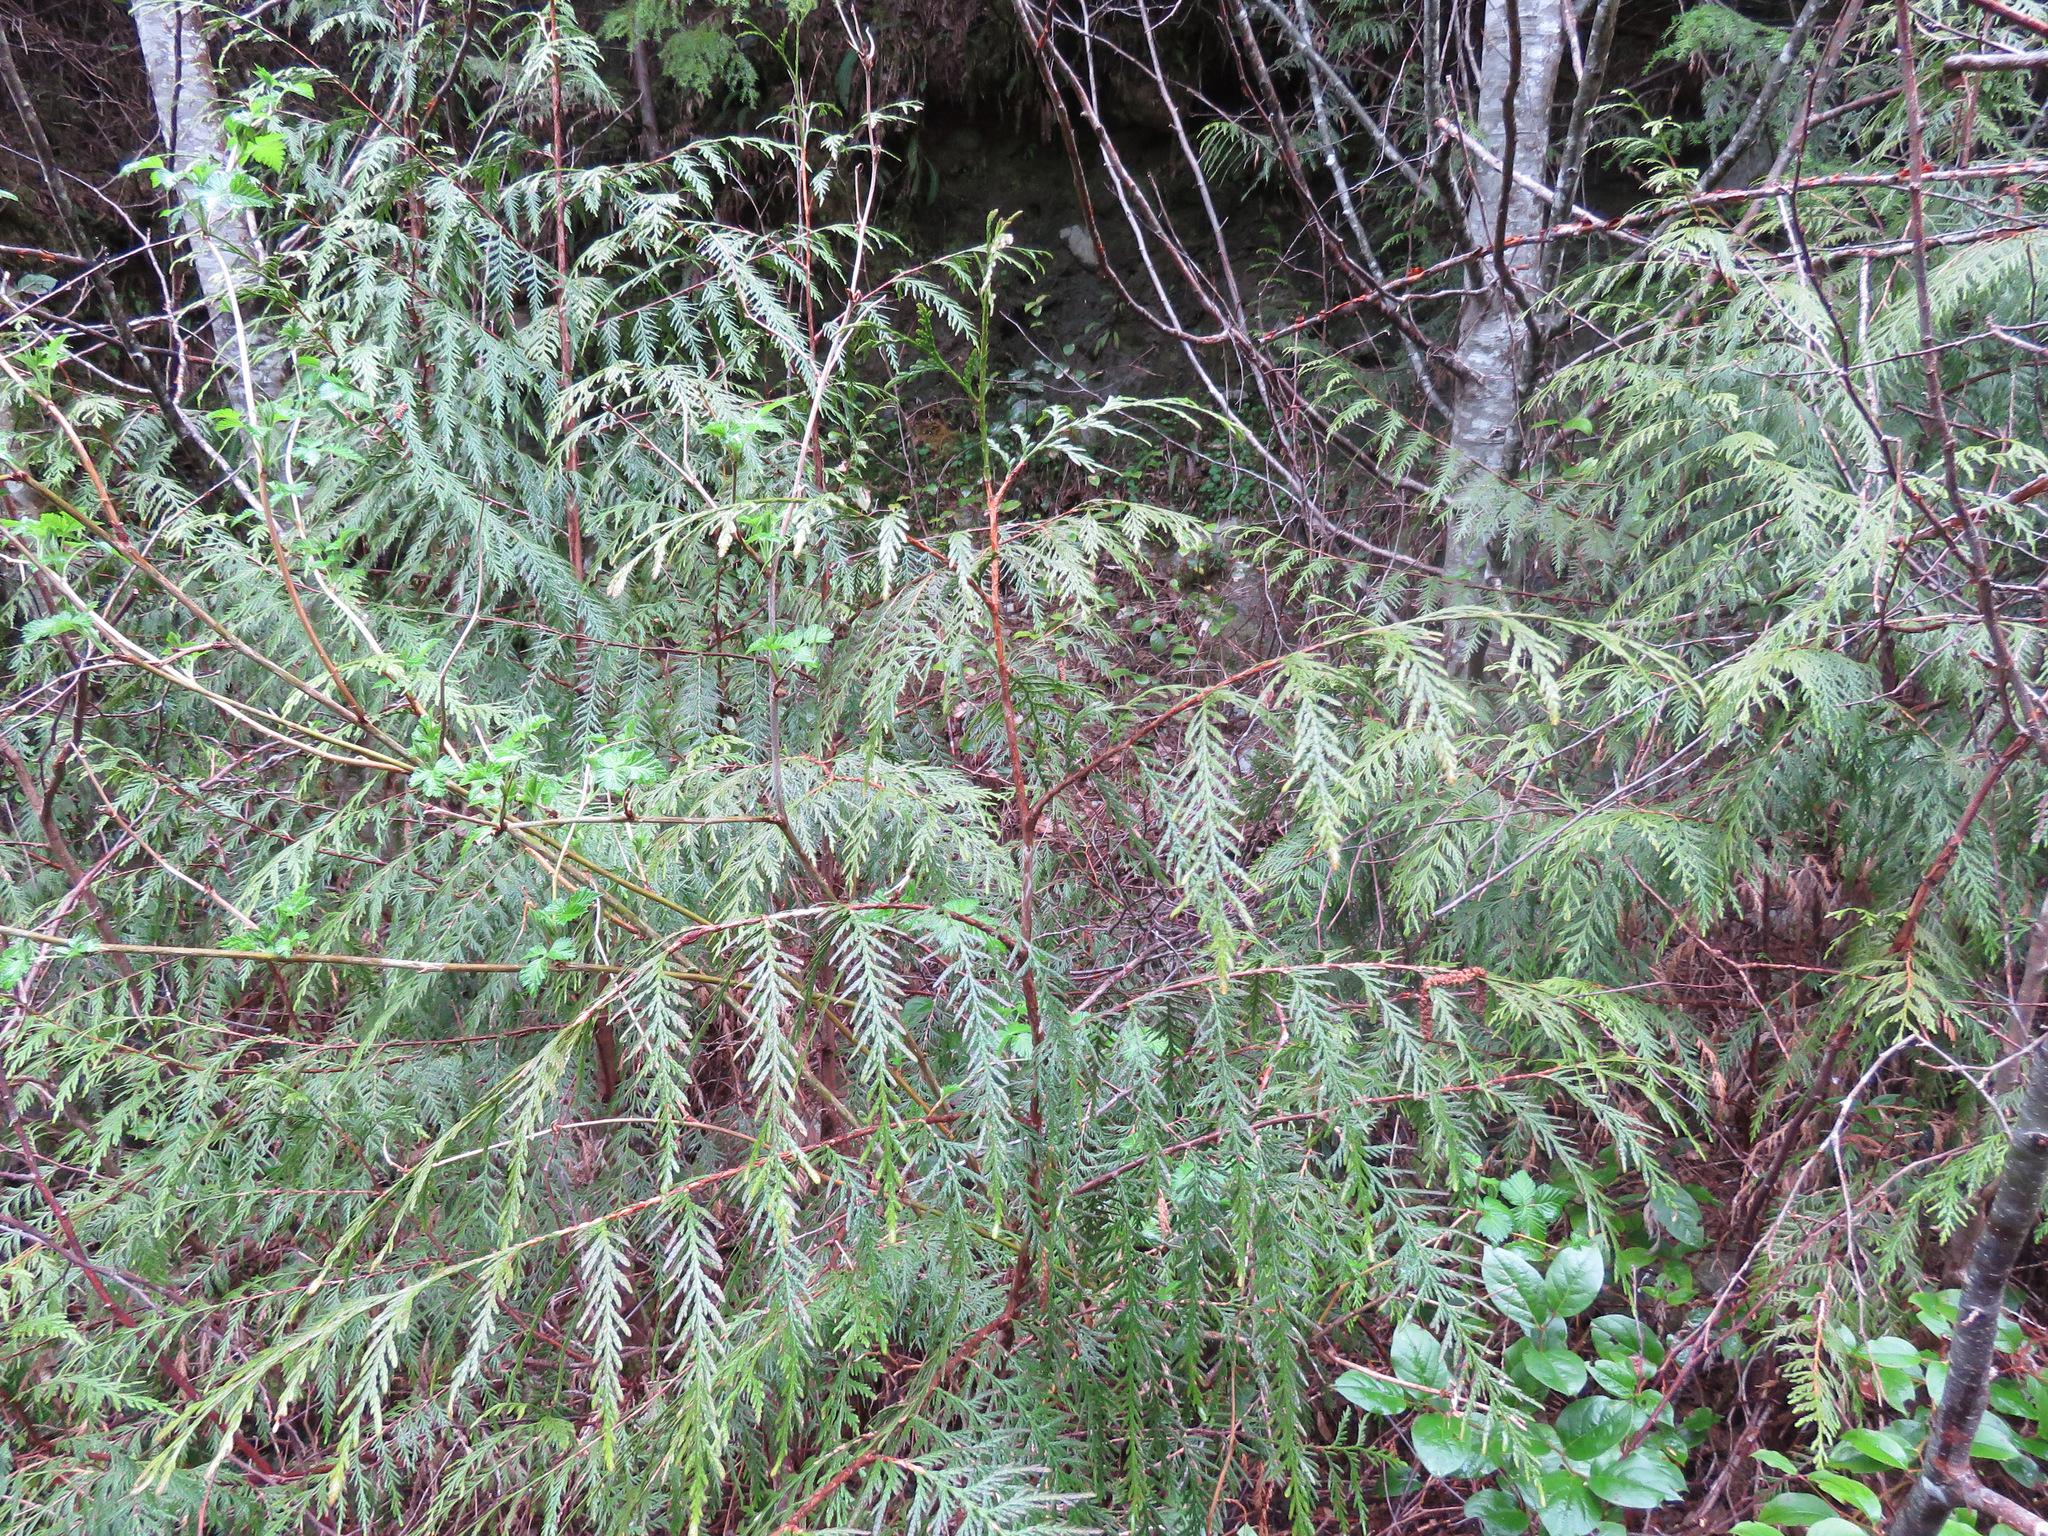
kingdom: Plantae
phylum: Tracheophyta
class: Pinopsida
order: Pinales
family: Cupressaceae
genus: Thuja
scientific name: Thuja plicata
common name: Western red-cedar
